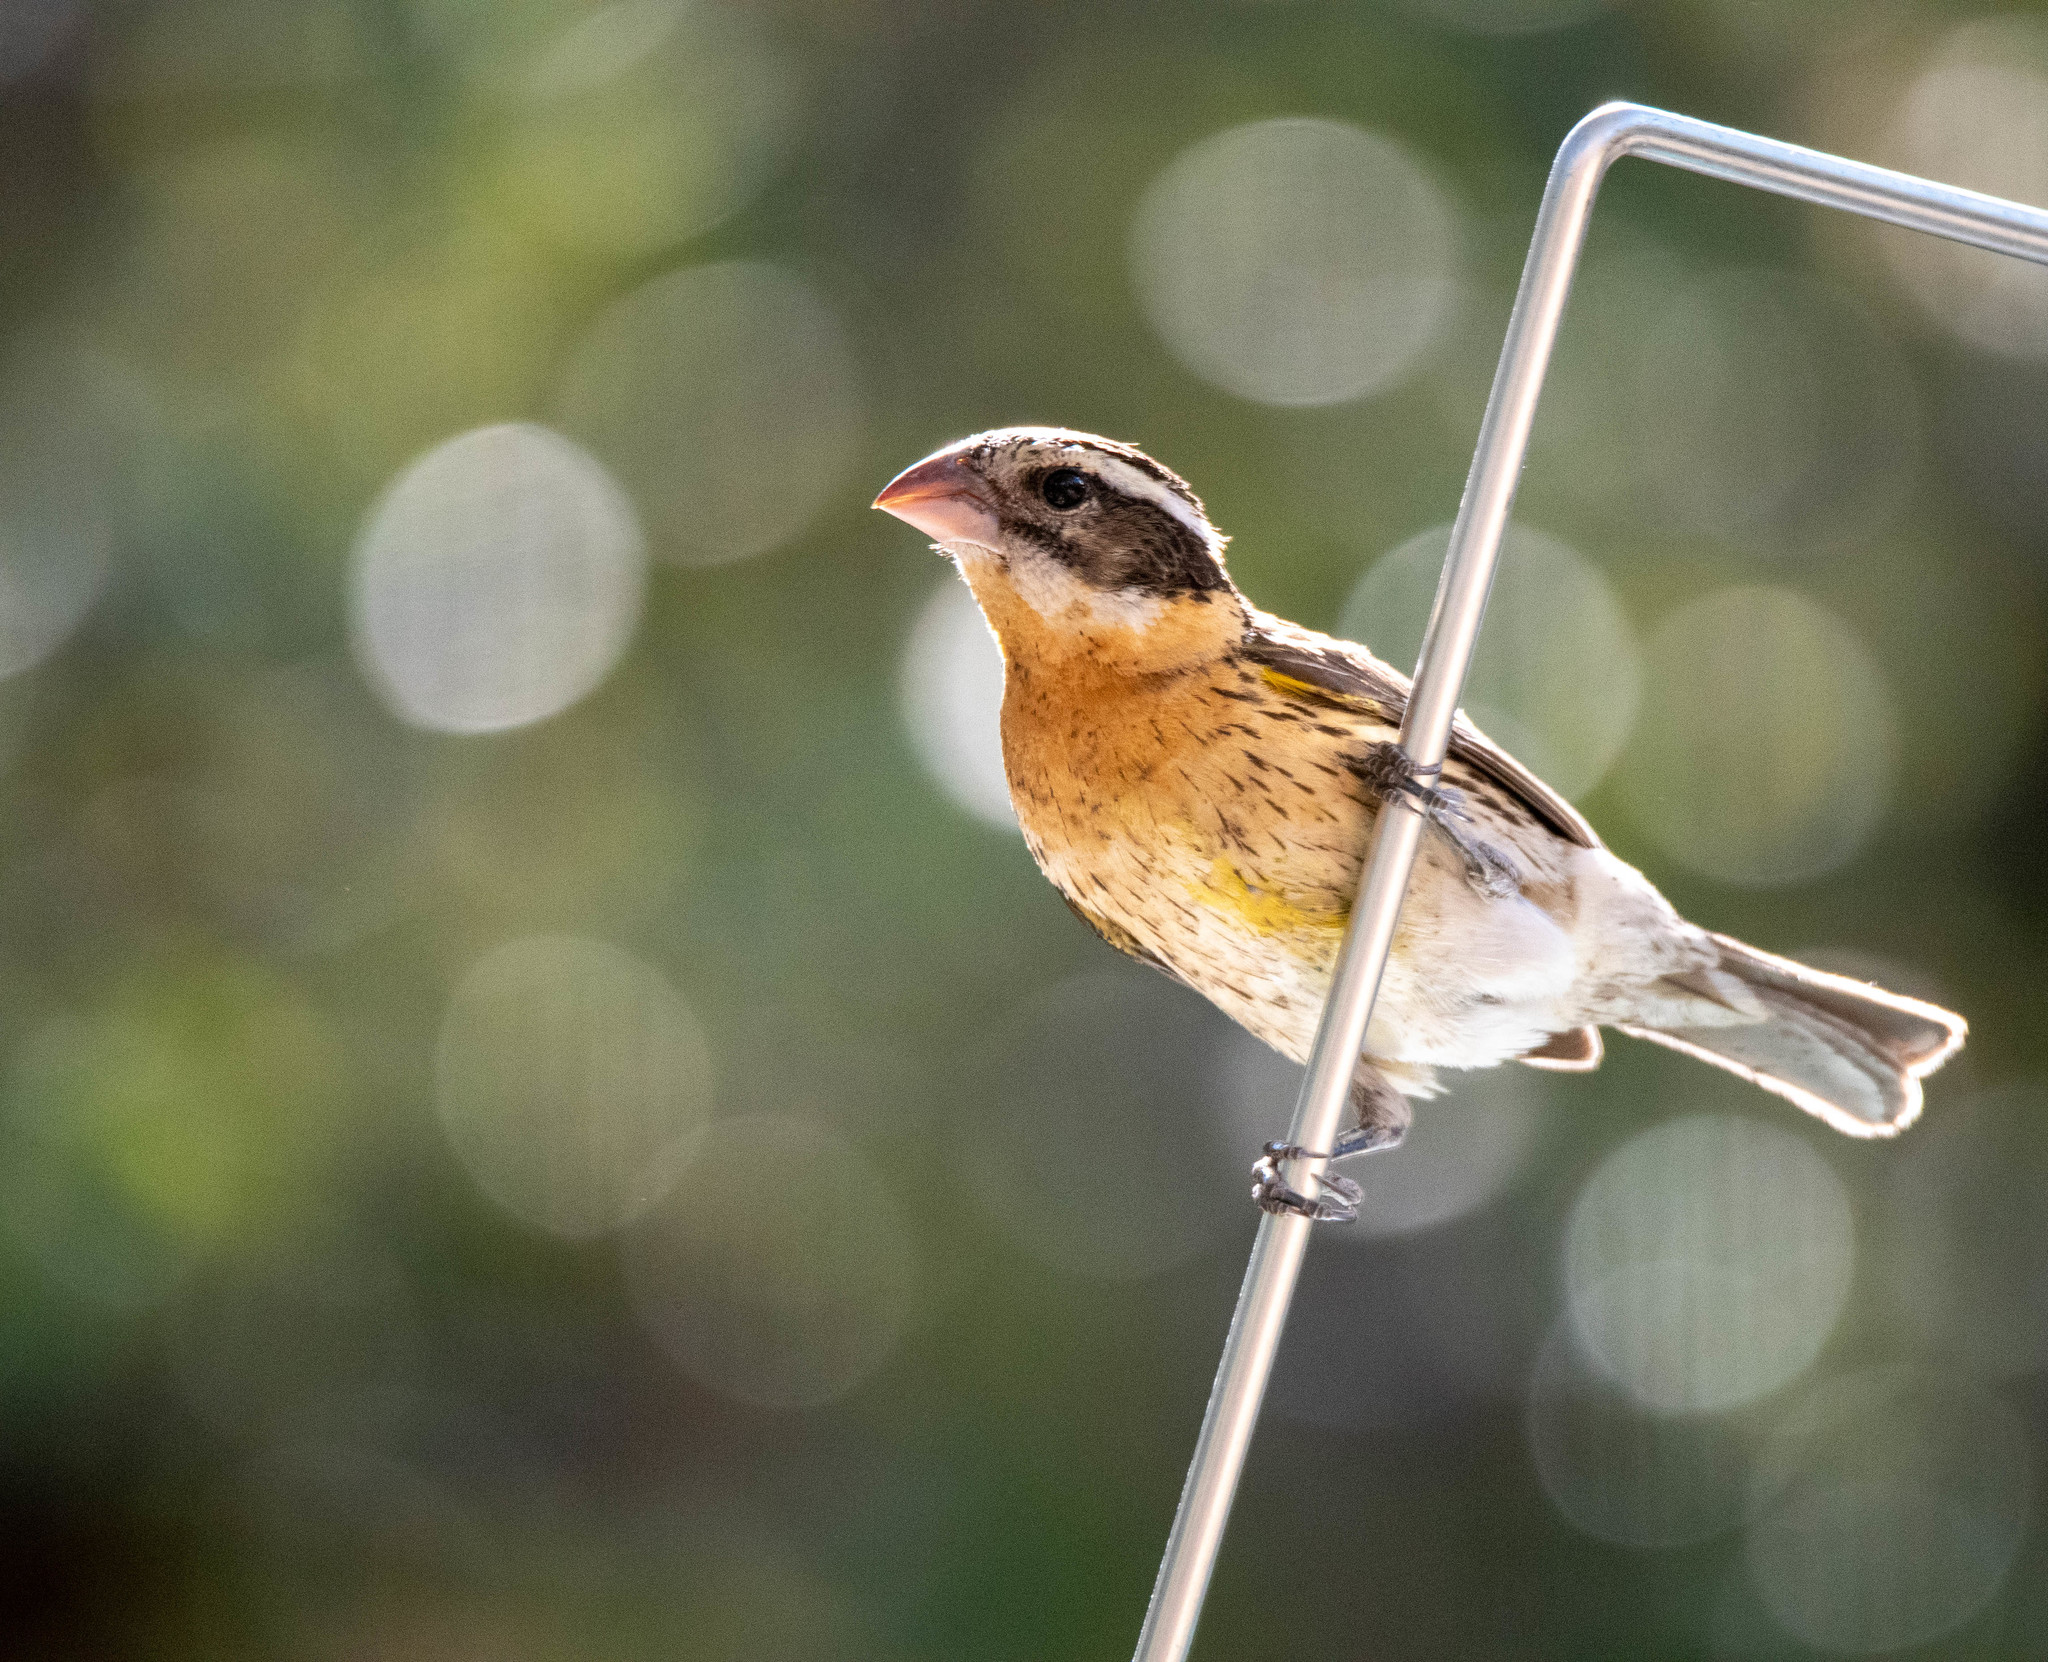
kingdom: Animalia
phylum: Chordata
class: Aves
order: Passeriformes
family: Cardinalidae
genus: Pheucticus
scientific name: Pheucticus melanocephalus
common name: Black-headed grosbeak
